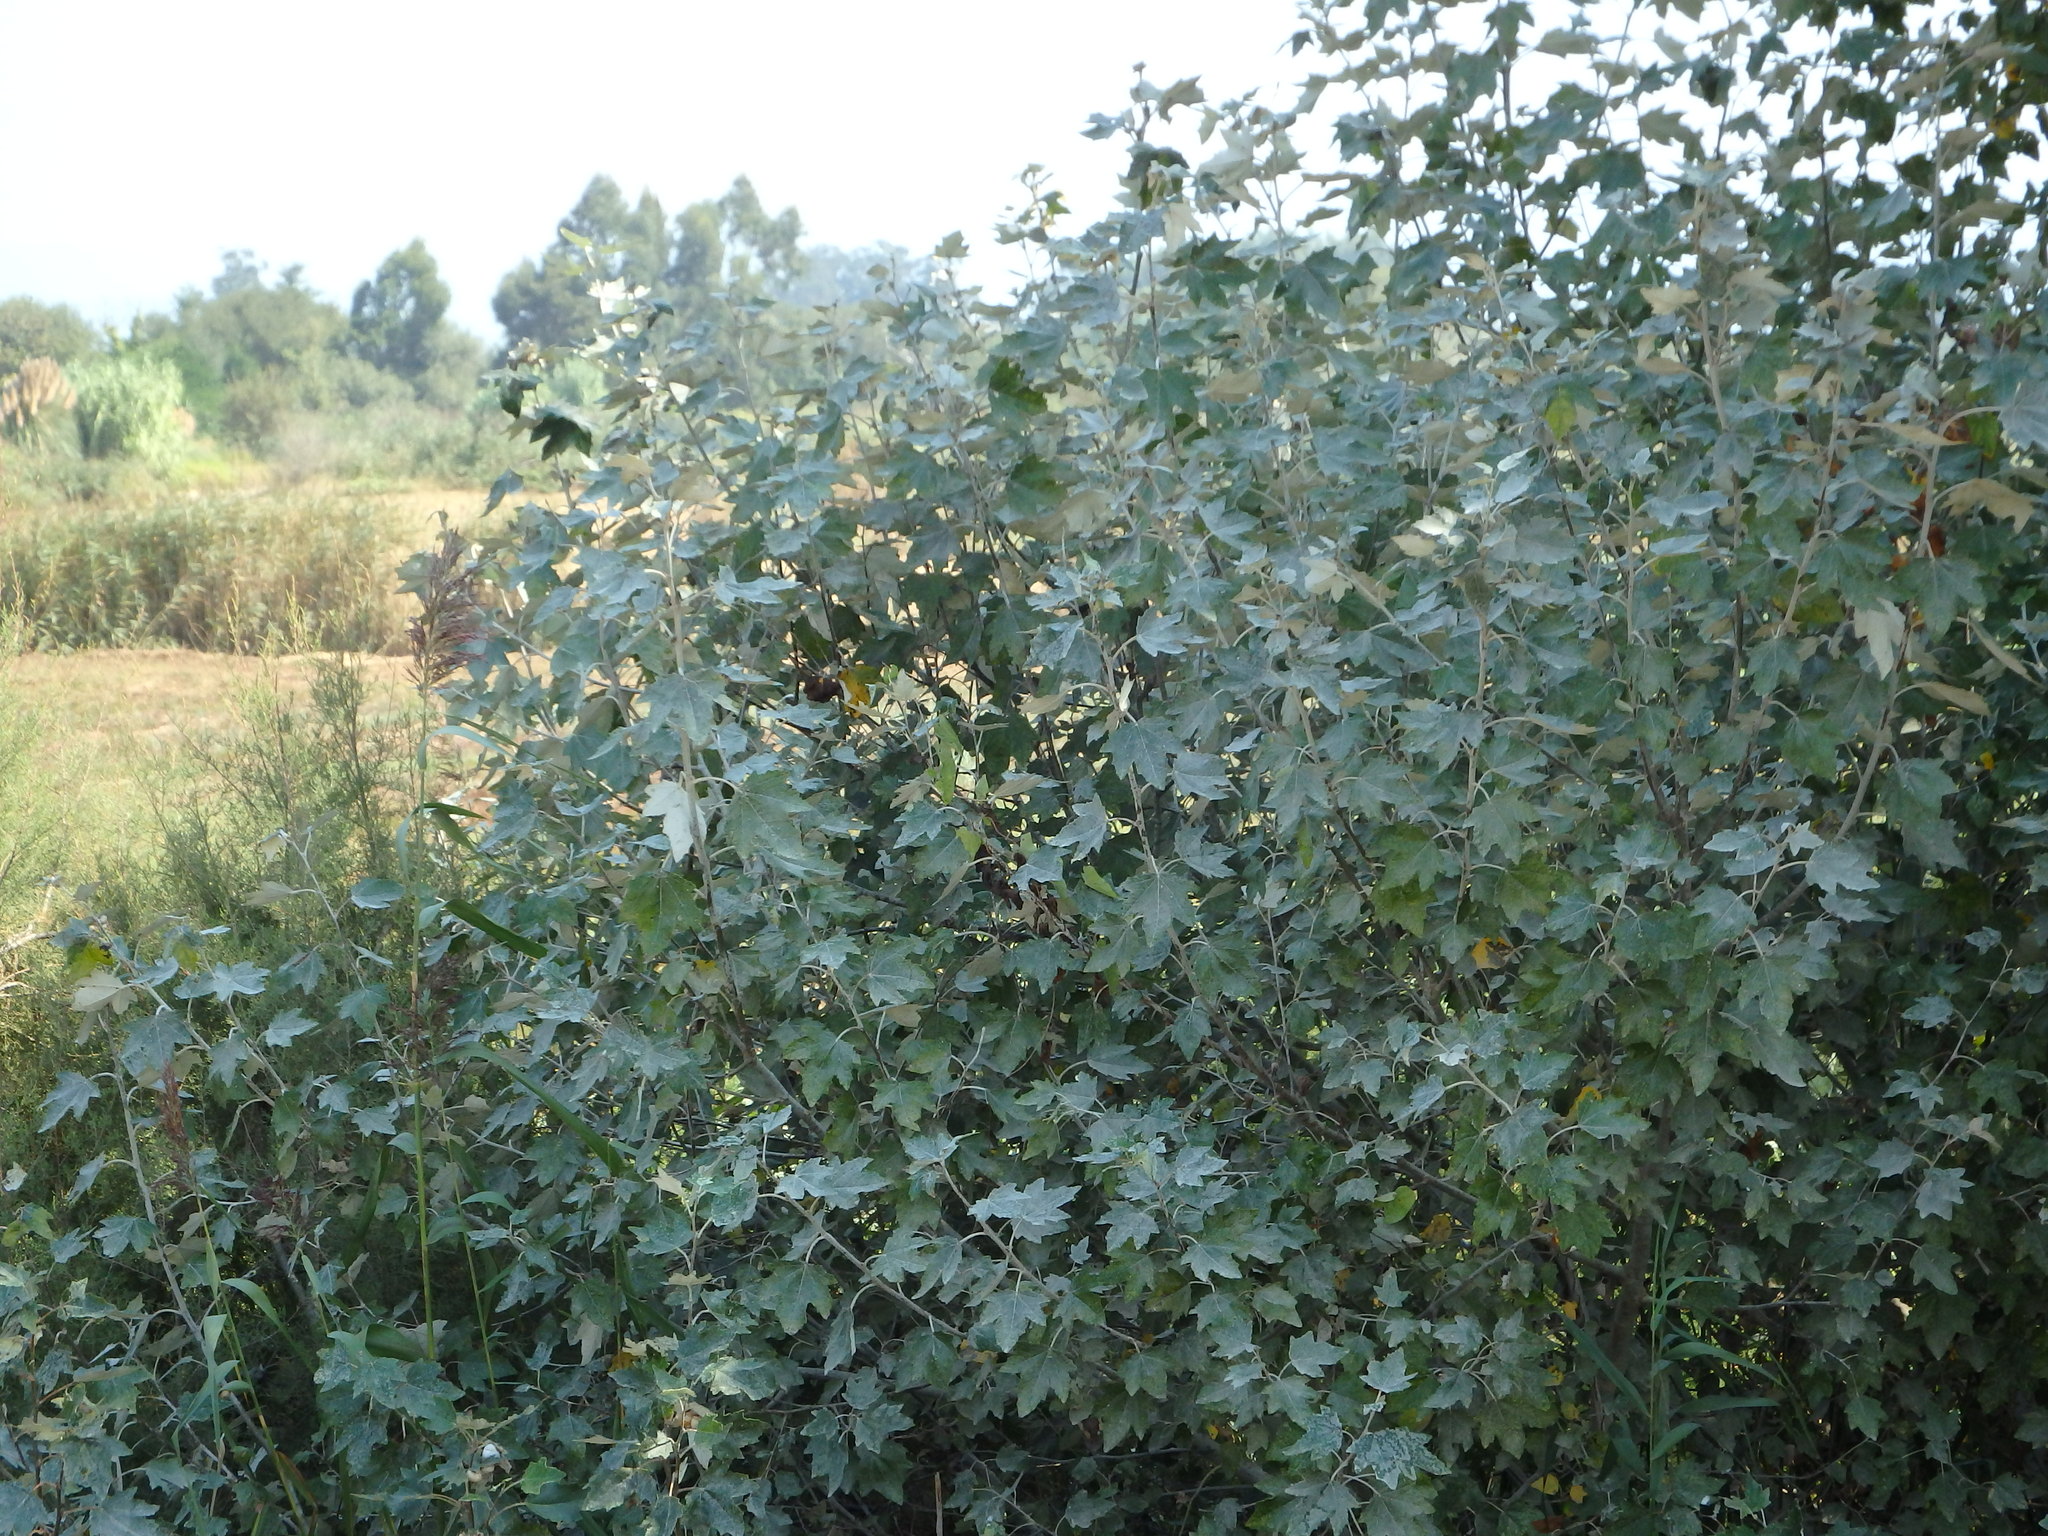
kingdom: Plantae
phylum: Tracheophyta
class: Magnoliopsida
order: Malpighiales
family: Salicaceae
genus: Populus
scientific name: Populus alba
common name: White poplar
